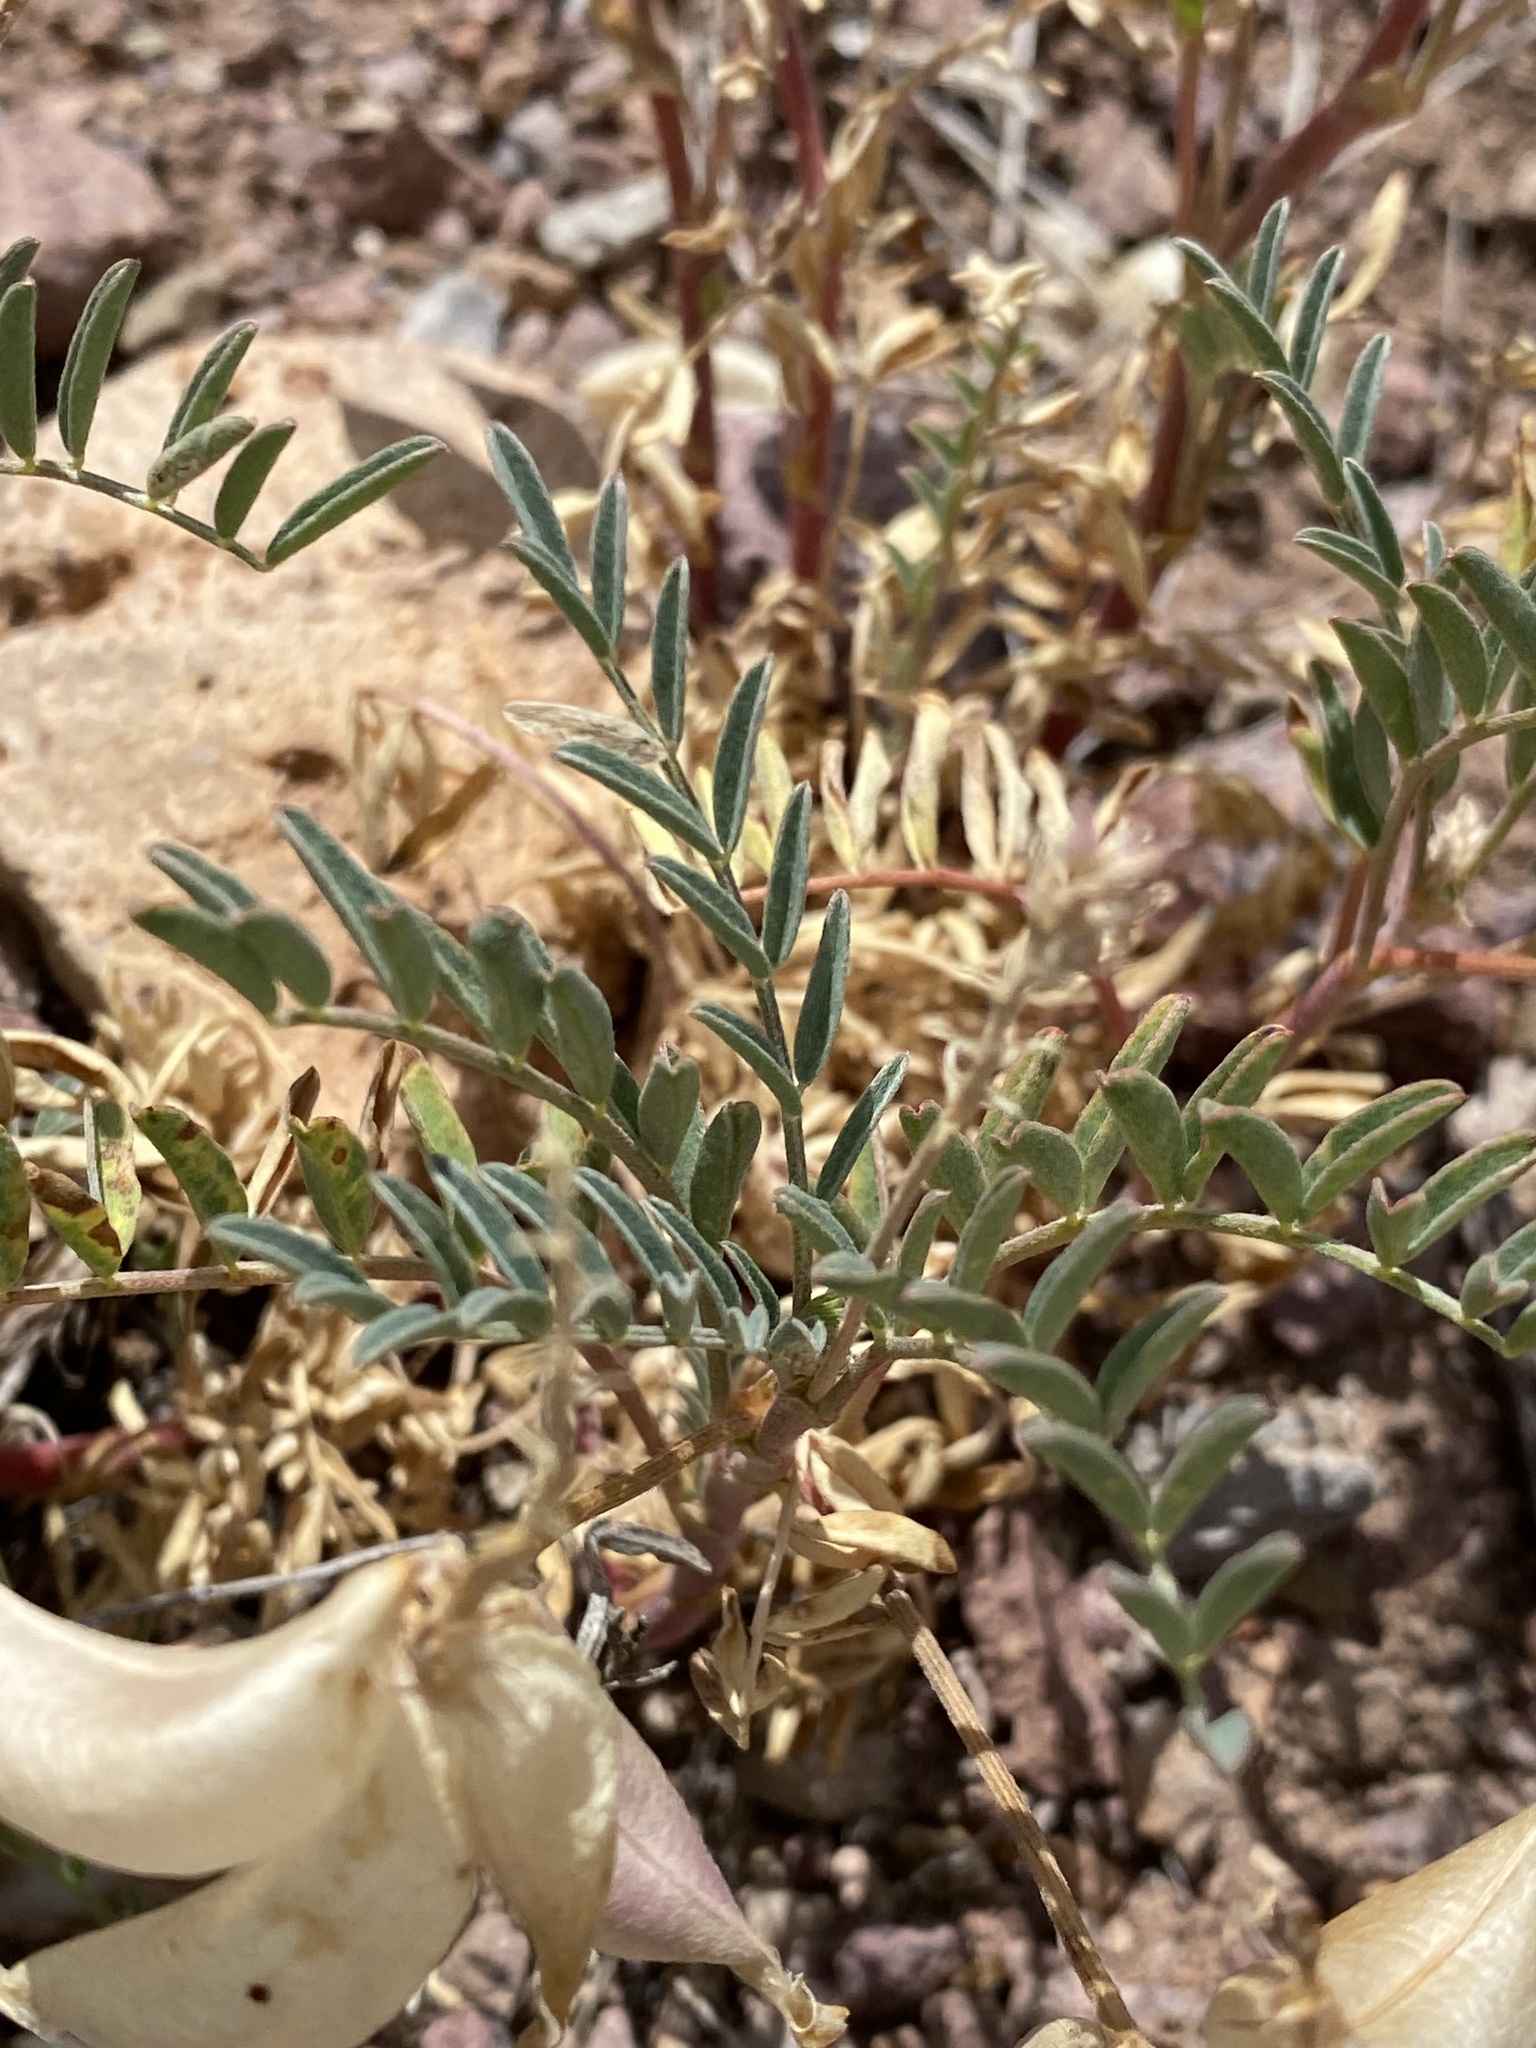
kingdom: Plantae
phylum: Tracheophyta
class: Magnoliopsida
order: Fabales
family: Fabaceae
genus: Astragalus
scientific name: Astragalus allochrous
